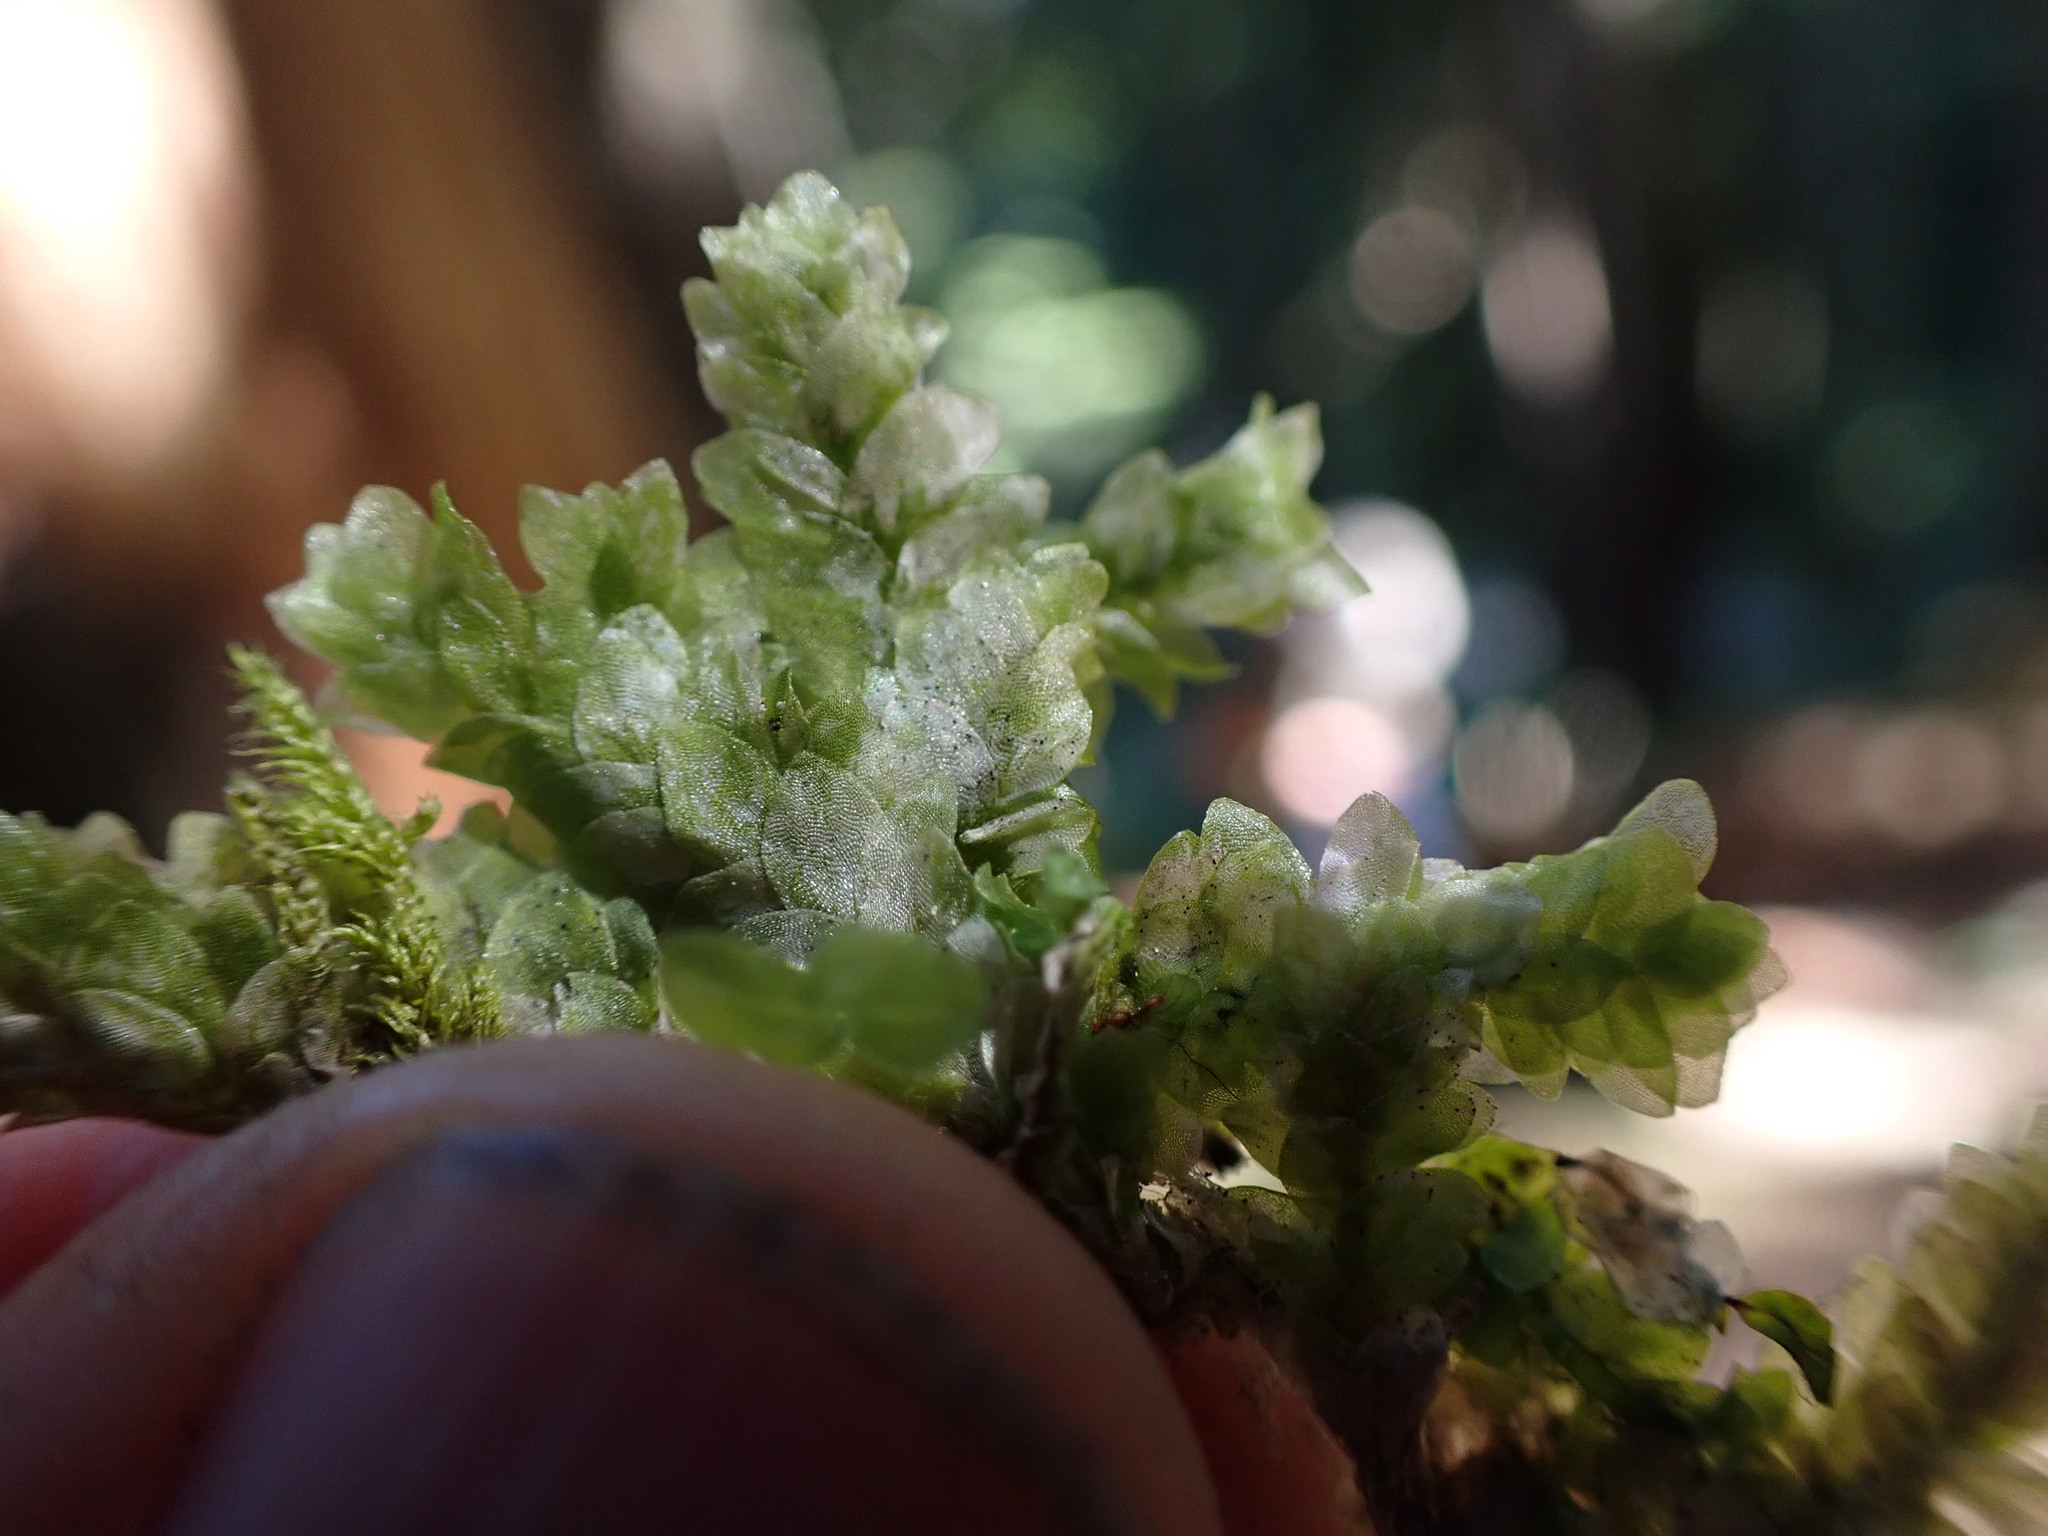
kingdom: Plantae
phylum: Bryophyta
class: Bryopsida
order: Hookeriales
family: Hookeriaceae
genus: Hookeria
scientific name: Hookeria lucens
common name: Shining hookeria
